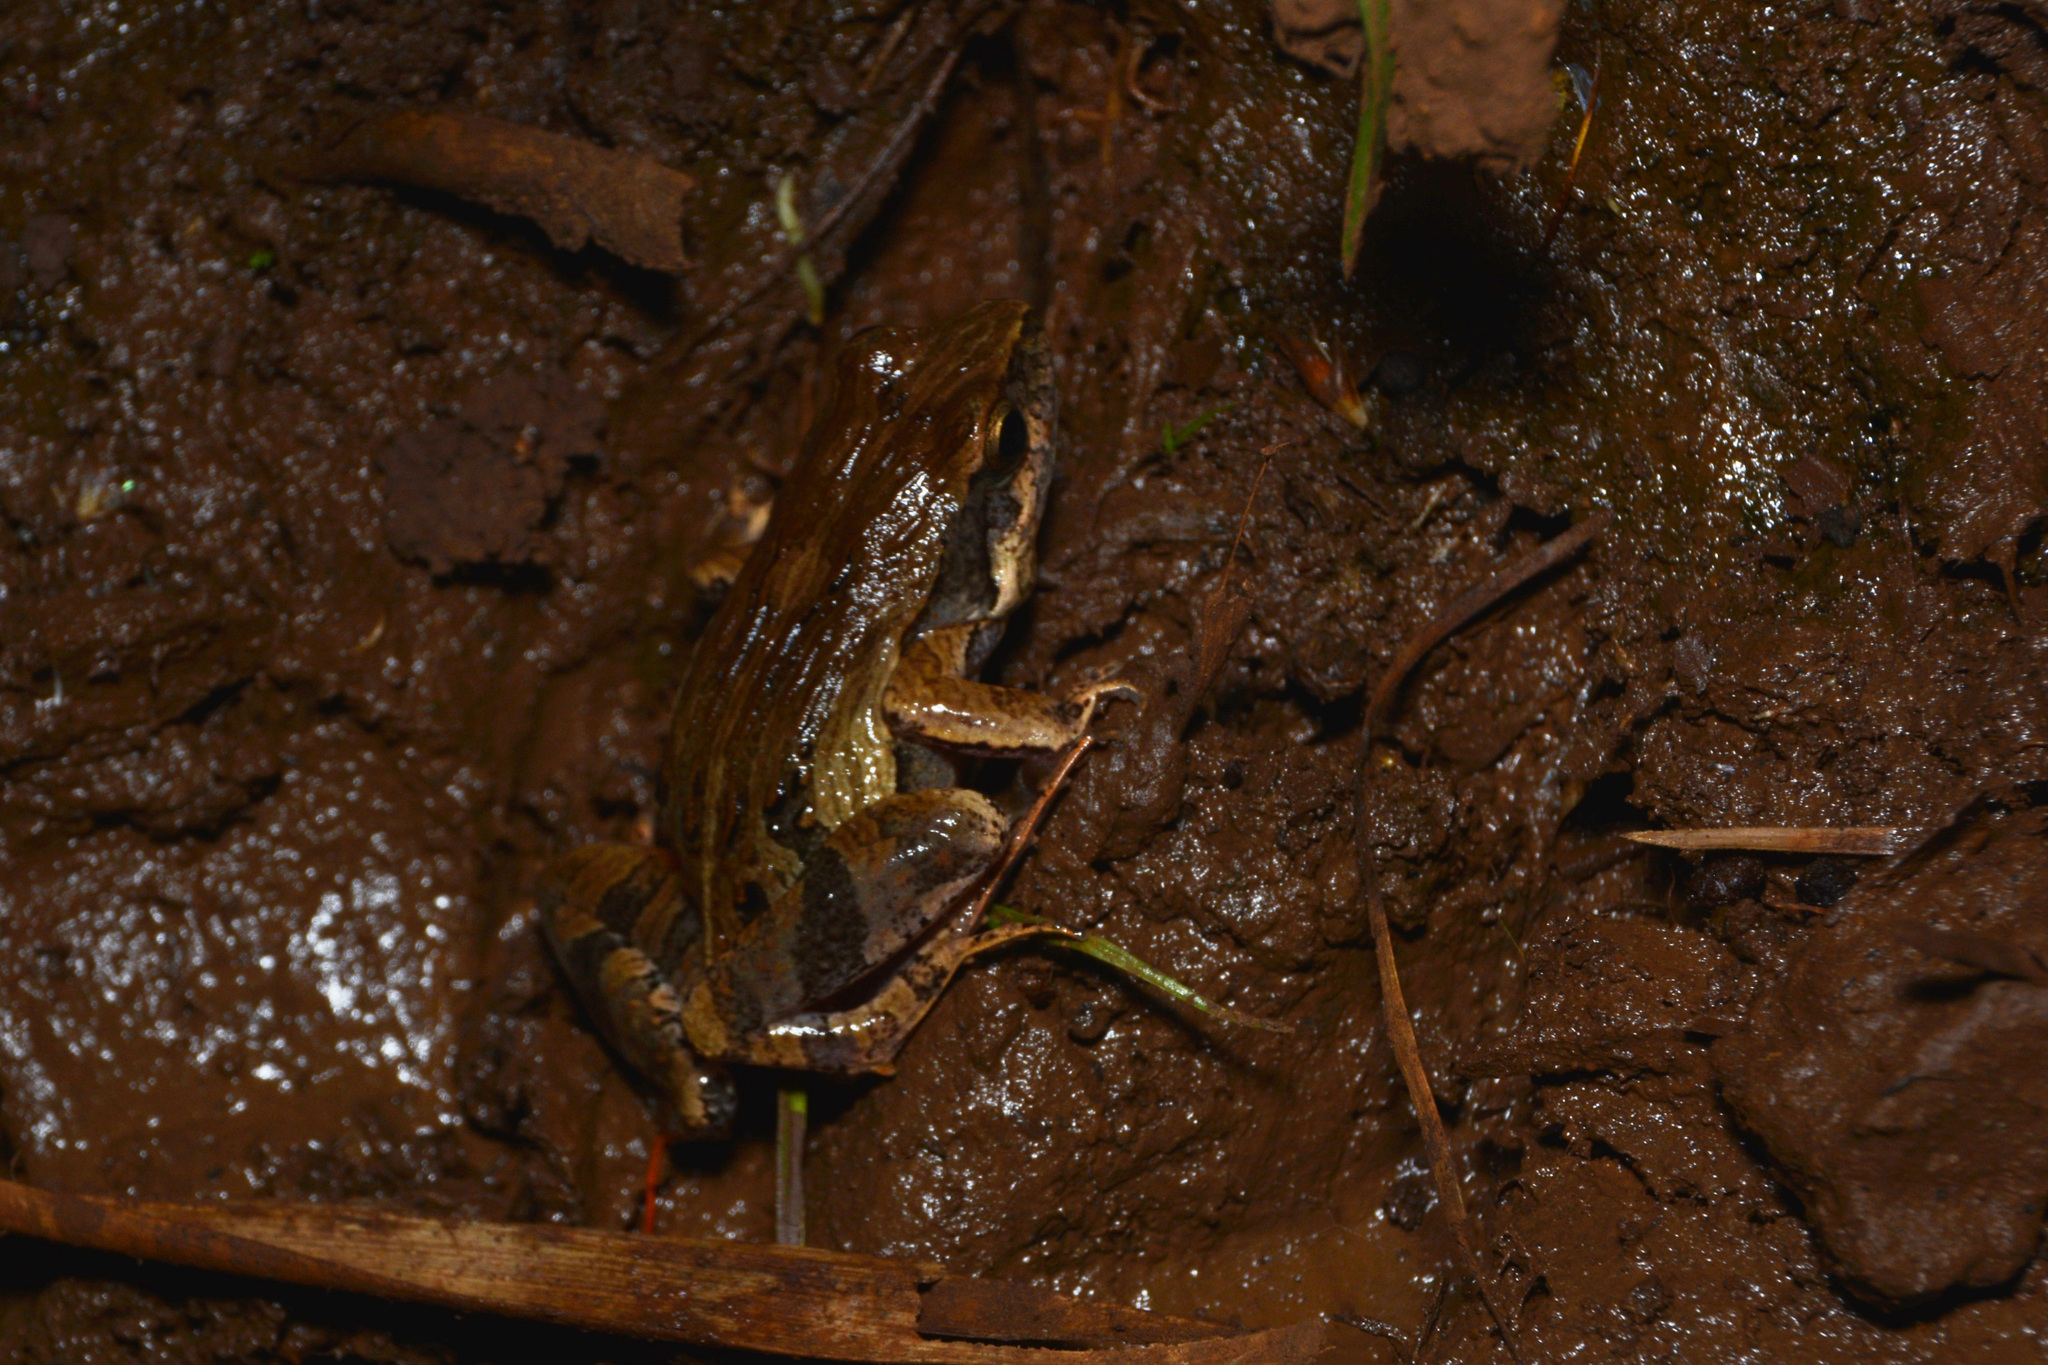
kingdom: Animalia
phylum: Chordata
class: Amphibia
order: Anura
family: Leptodactylidae
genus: Physalaemus
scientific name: Physalaemus cuvieri
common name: Barker frog
